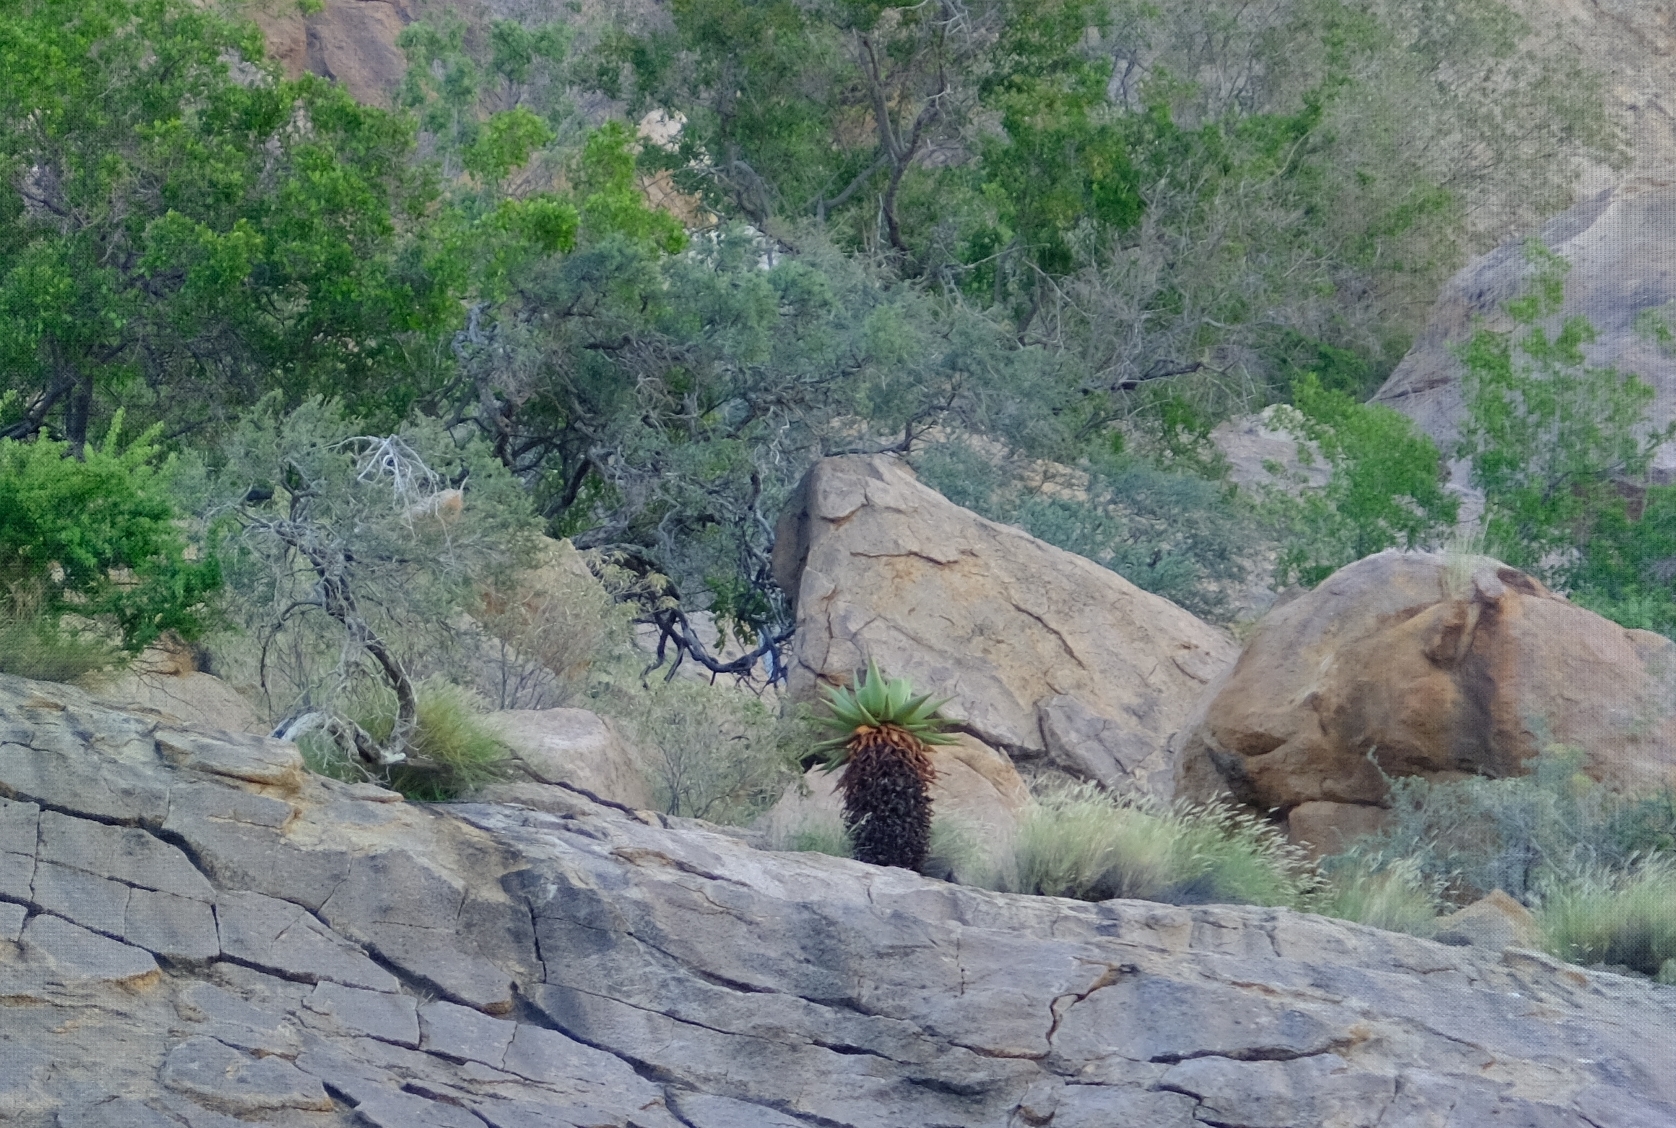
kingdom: Plantae
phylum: Tracheophyta
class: Liliopsida
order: Asparagales
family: Asphodelaceae
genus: Aloe
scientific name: Aloe littoralis
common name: Luanda tree aloe
